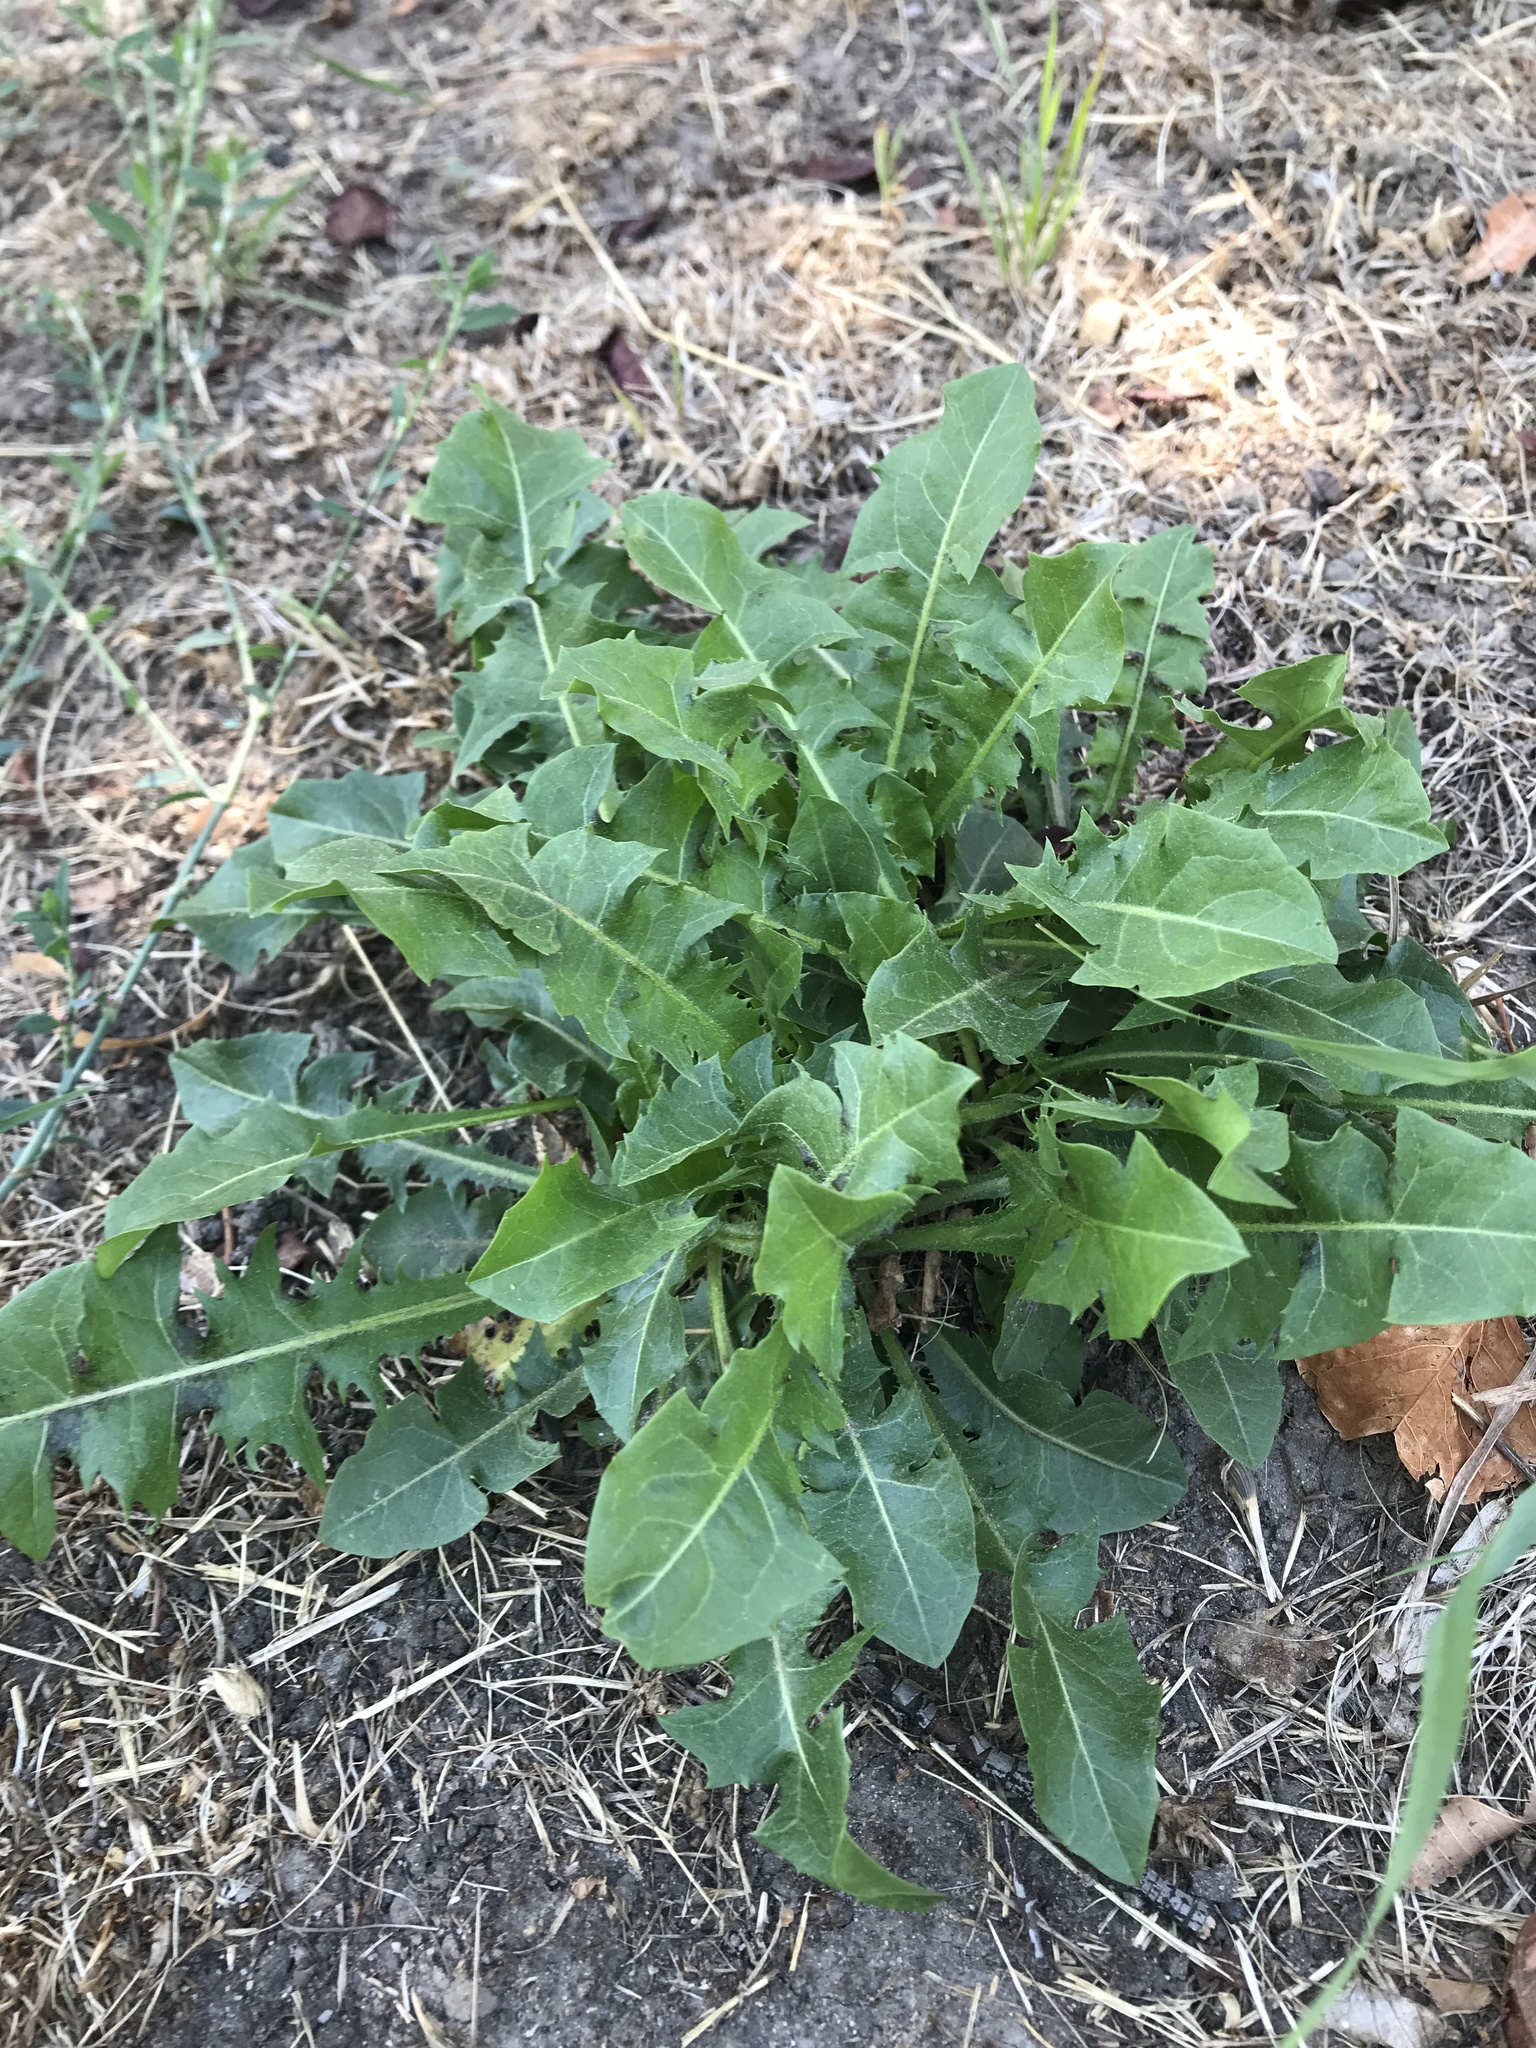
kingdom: Plantae
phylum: Tracheophyta
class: Magnoliopsida
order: Asterales
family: Asteraceae
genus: Taraxacum
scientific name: Taraxacum officinale
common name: Common dandelion
